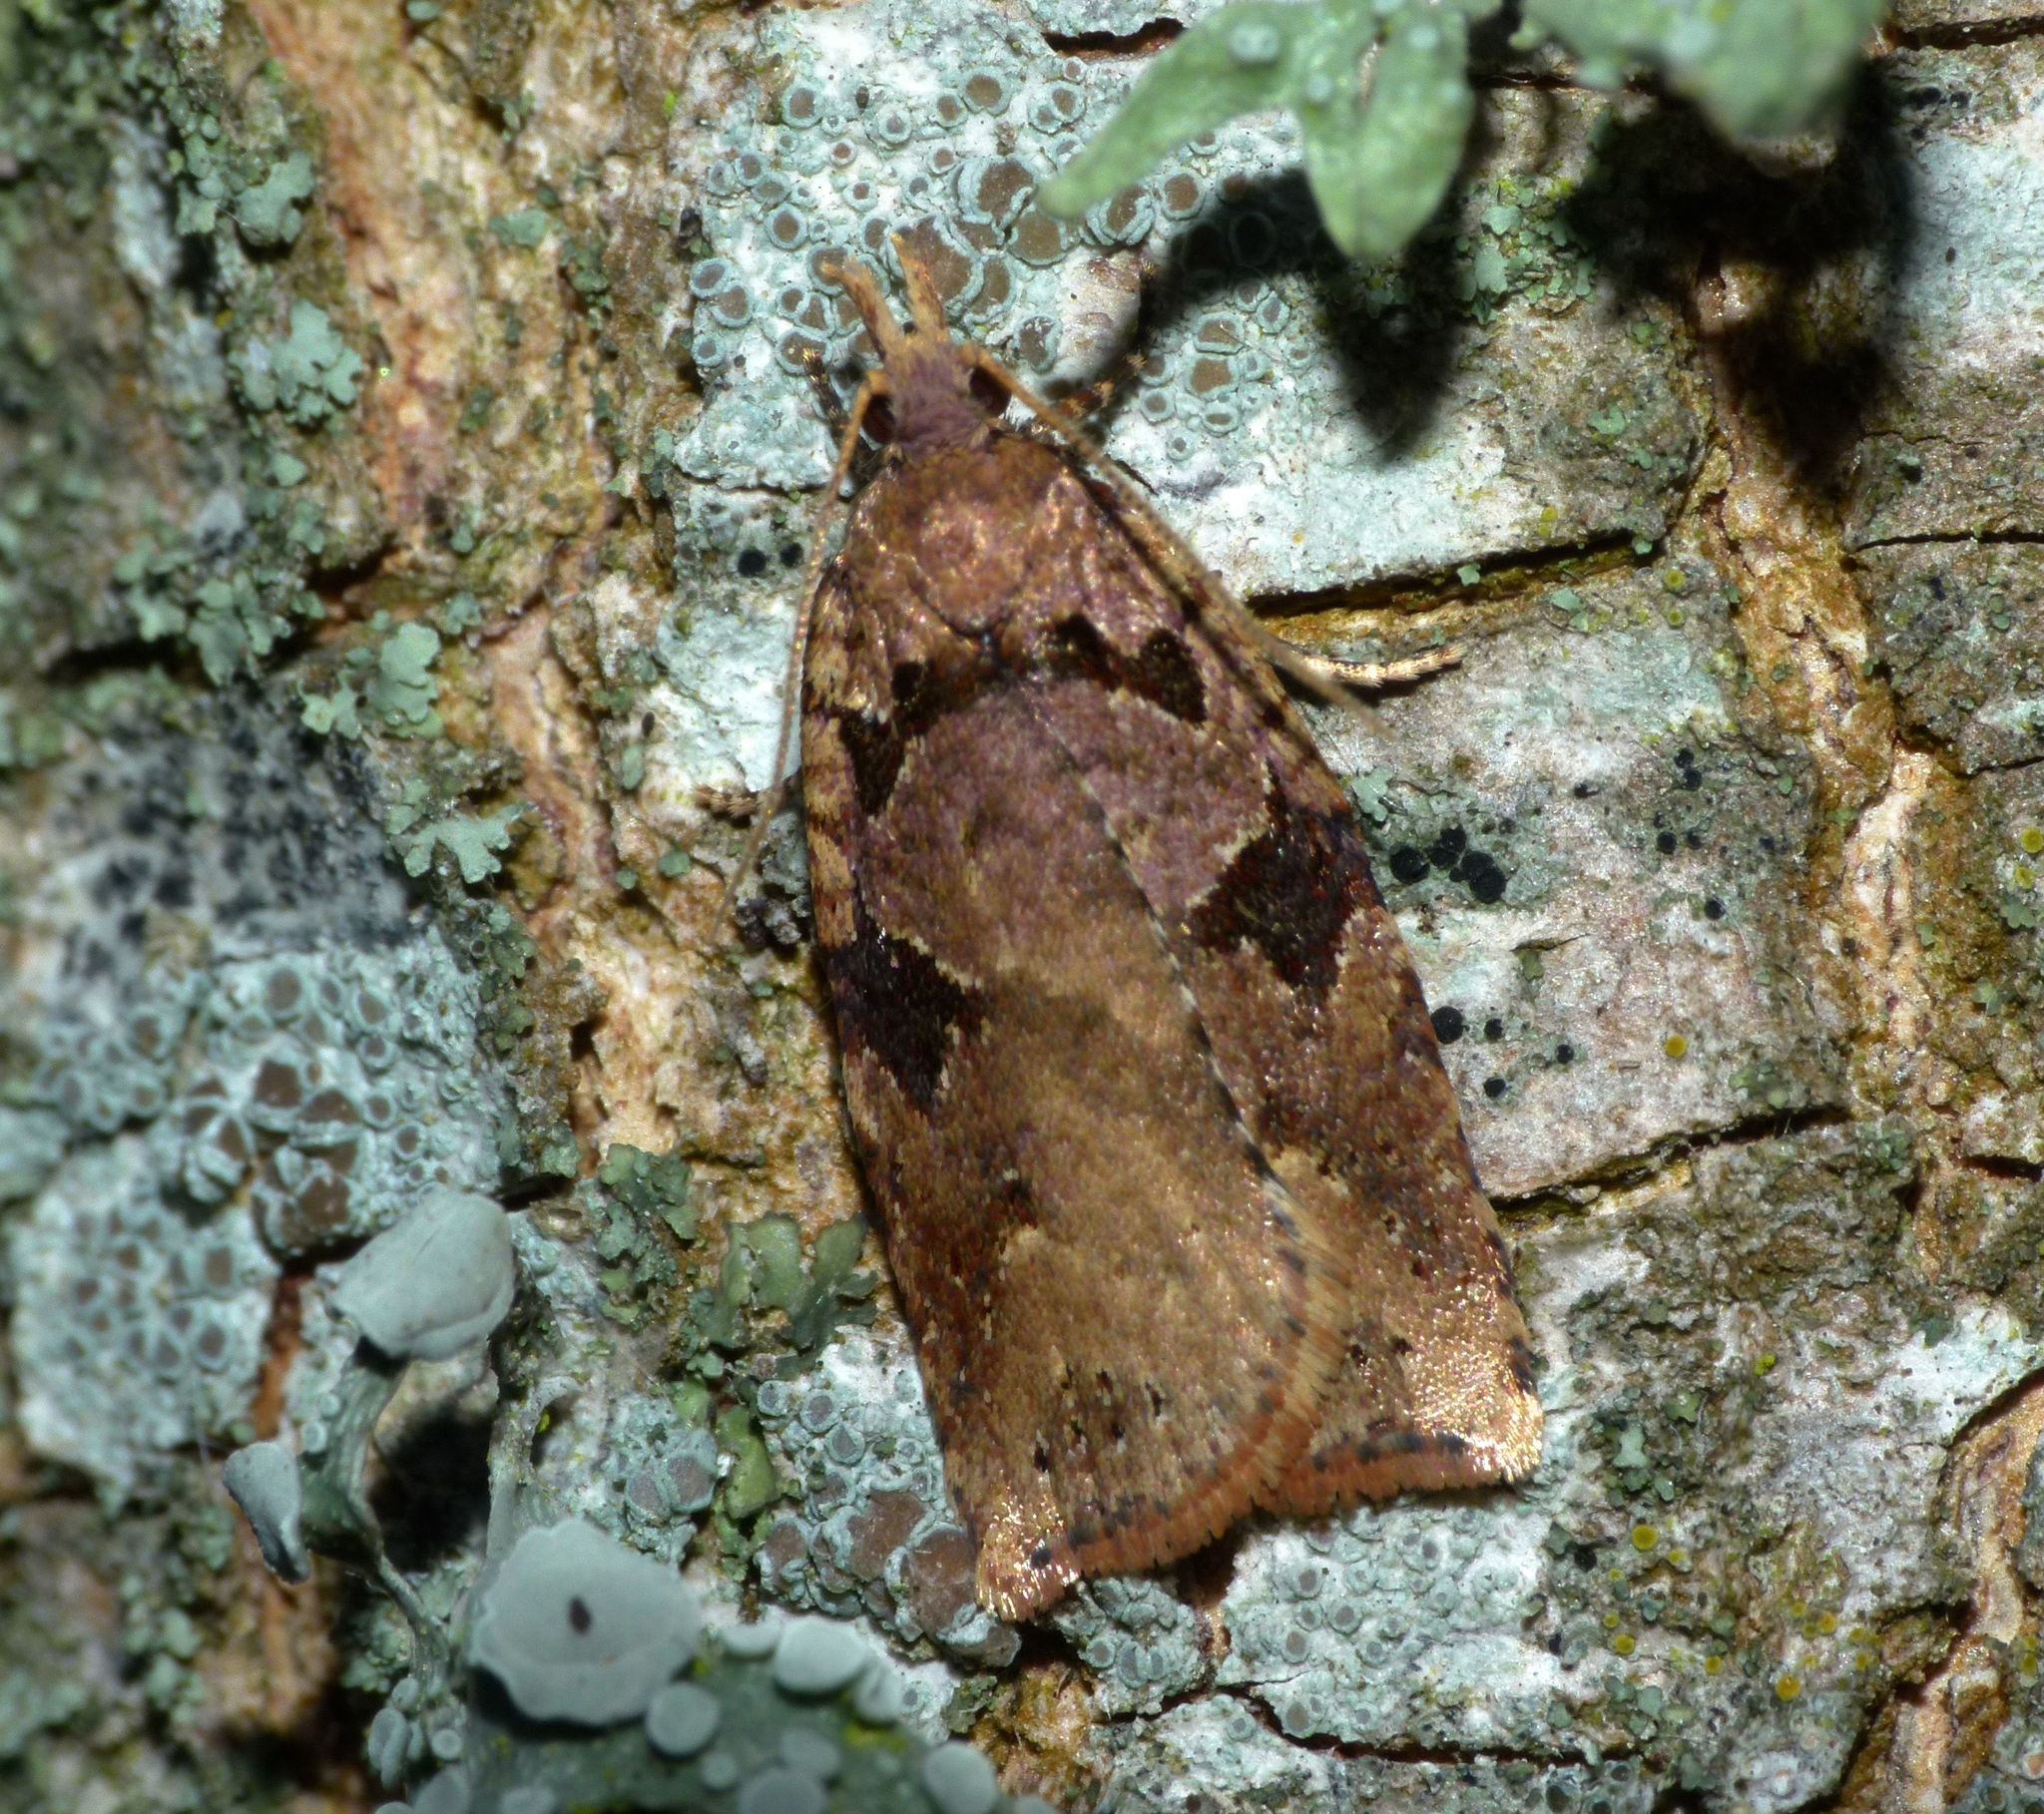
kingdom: Animalia
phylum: Arthropoda
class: Insecta
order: Lepidoptera
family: Tortricidae
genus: Ctenopseustis
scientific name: Ctenopseustis obliquana
